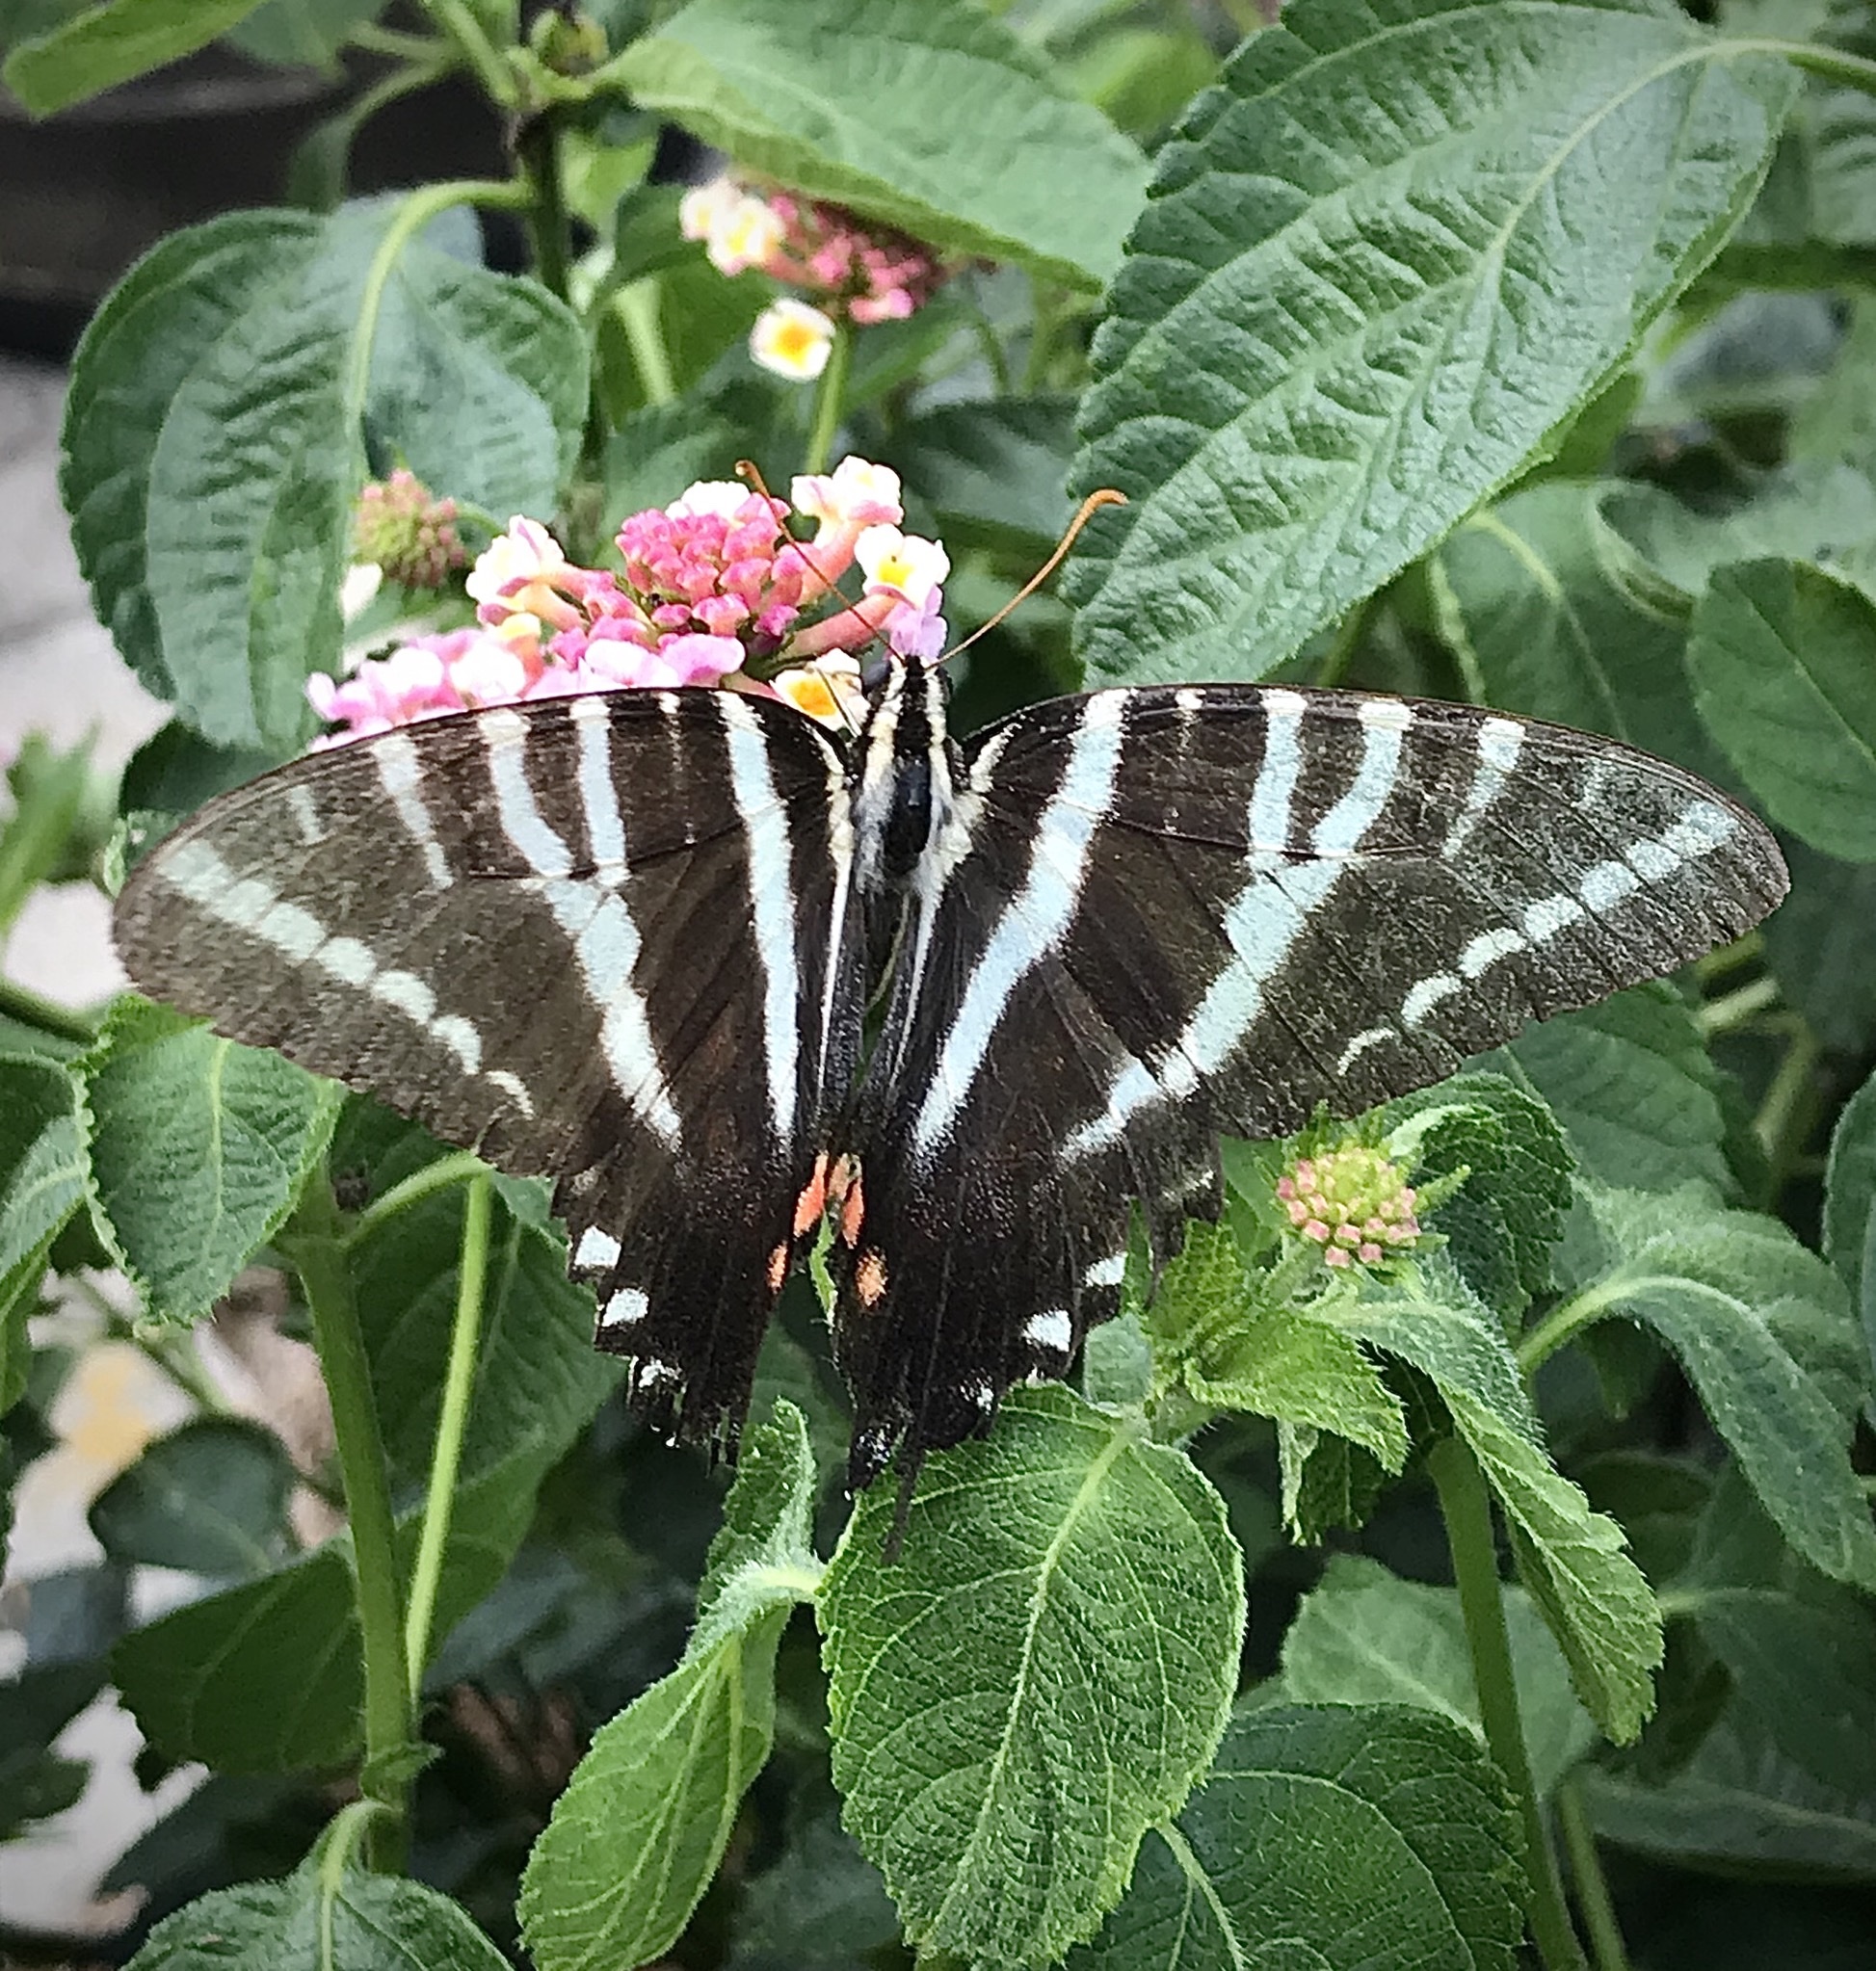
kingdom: Animalia
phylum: Arthropoda
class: Insecta
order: Lepidoptera
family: Papilionidae
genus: Protographium
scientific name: Protographium marcellus
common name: Zebra swallowtail
